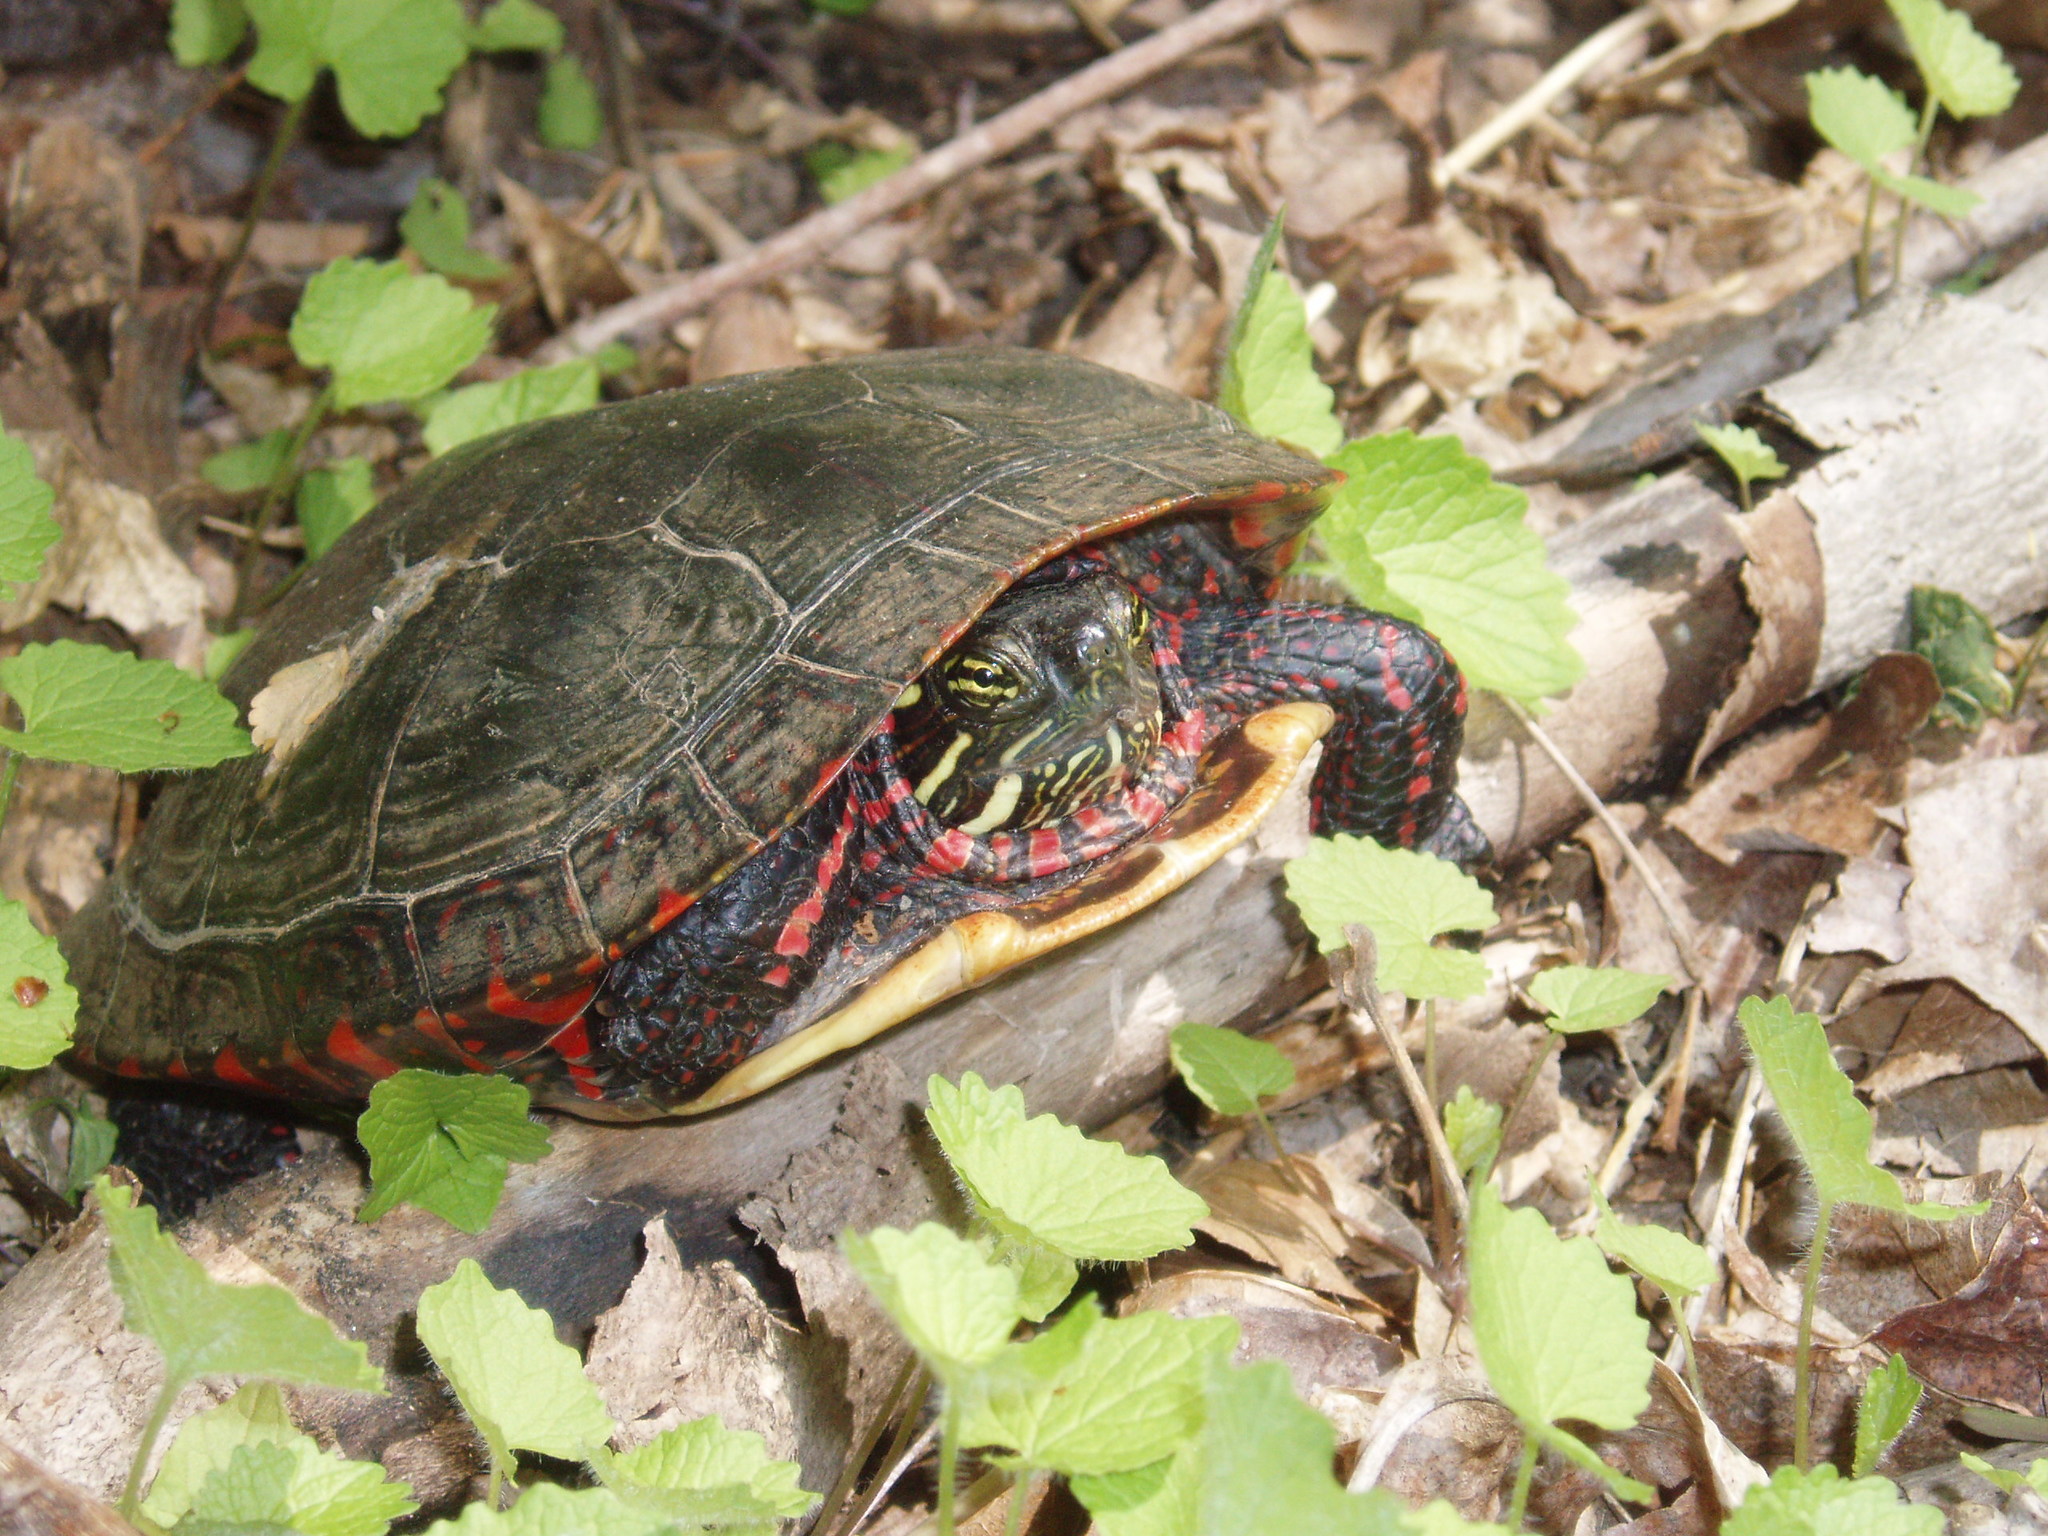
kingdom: Animalia
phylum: Chordata
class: Testudines
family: Emydidae
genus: Chrysemys
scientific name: Chrysemys picta
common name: Painted turtle
